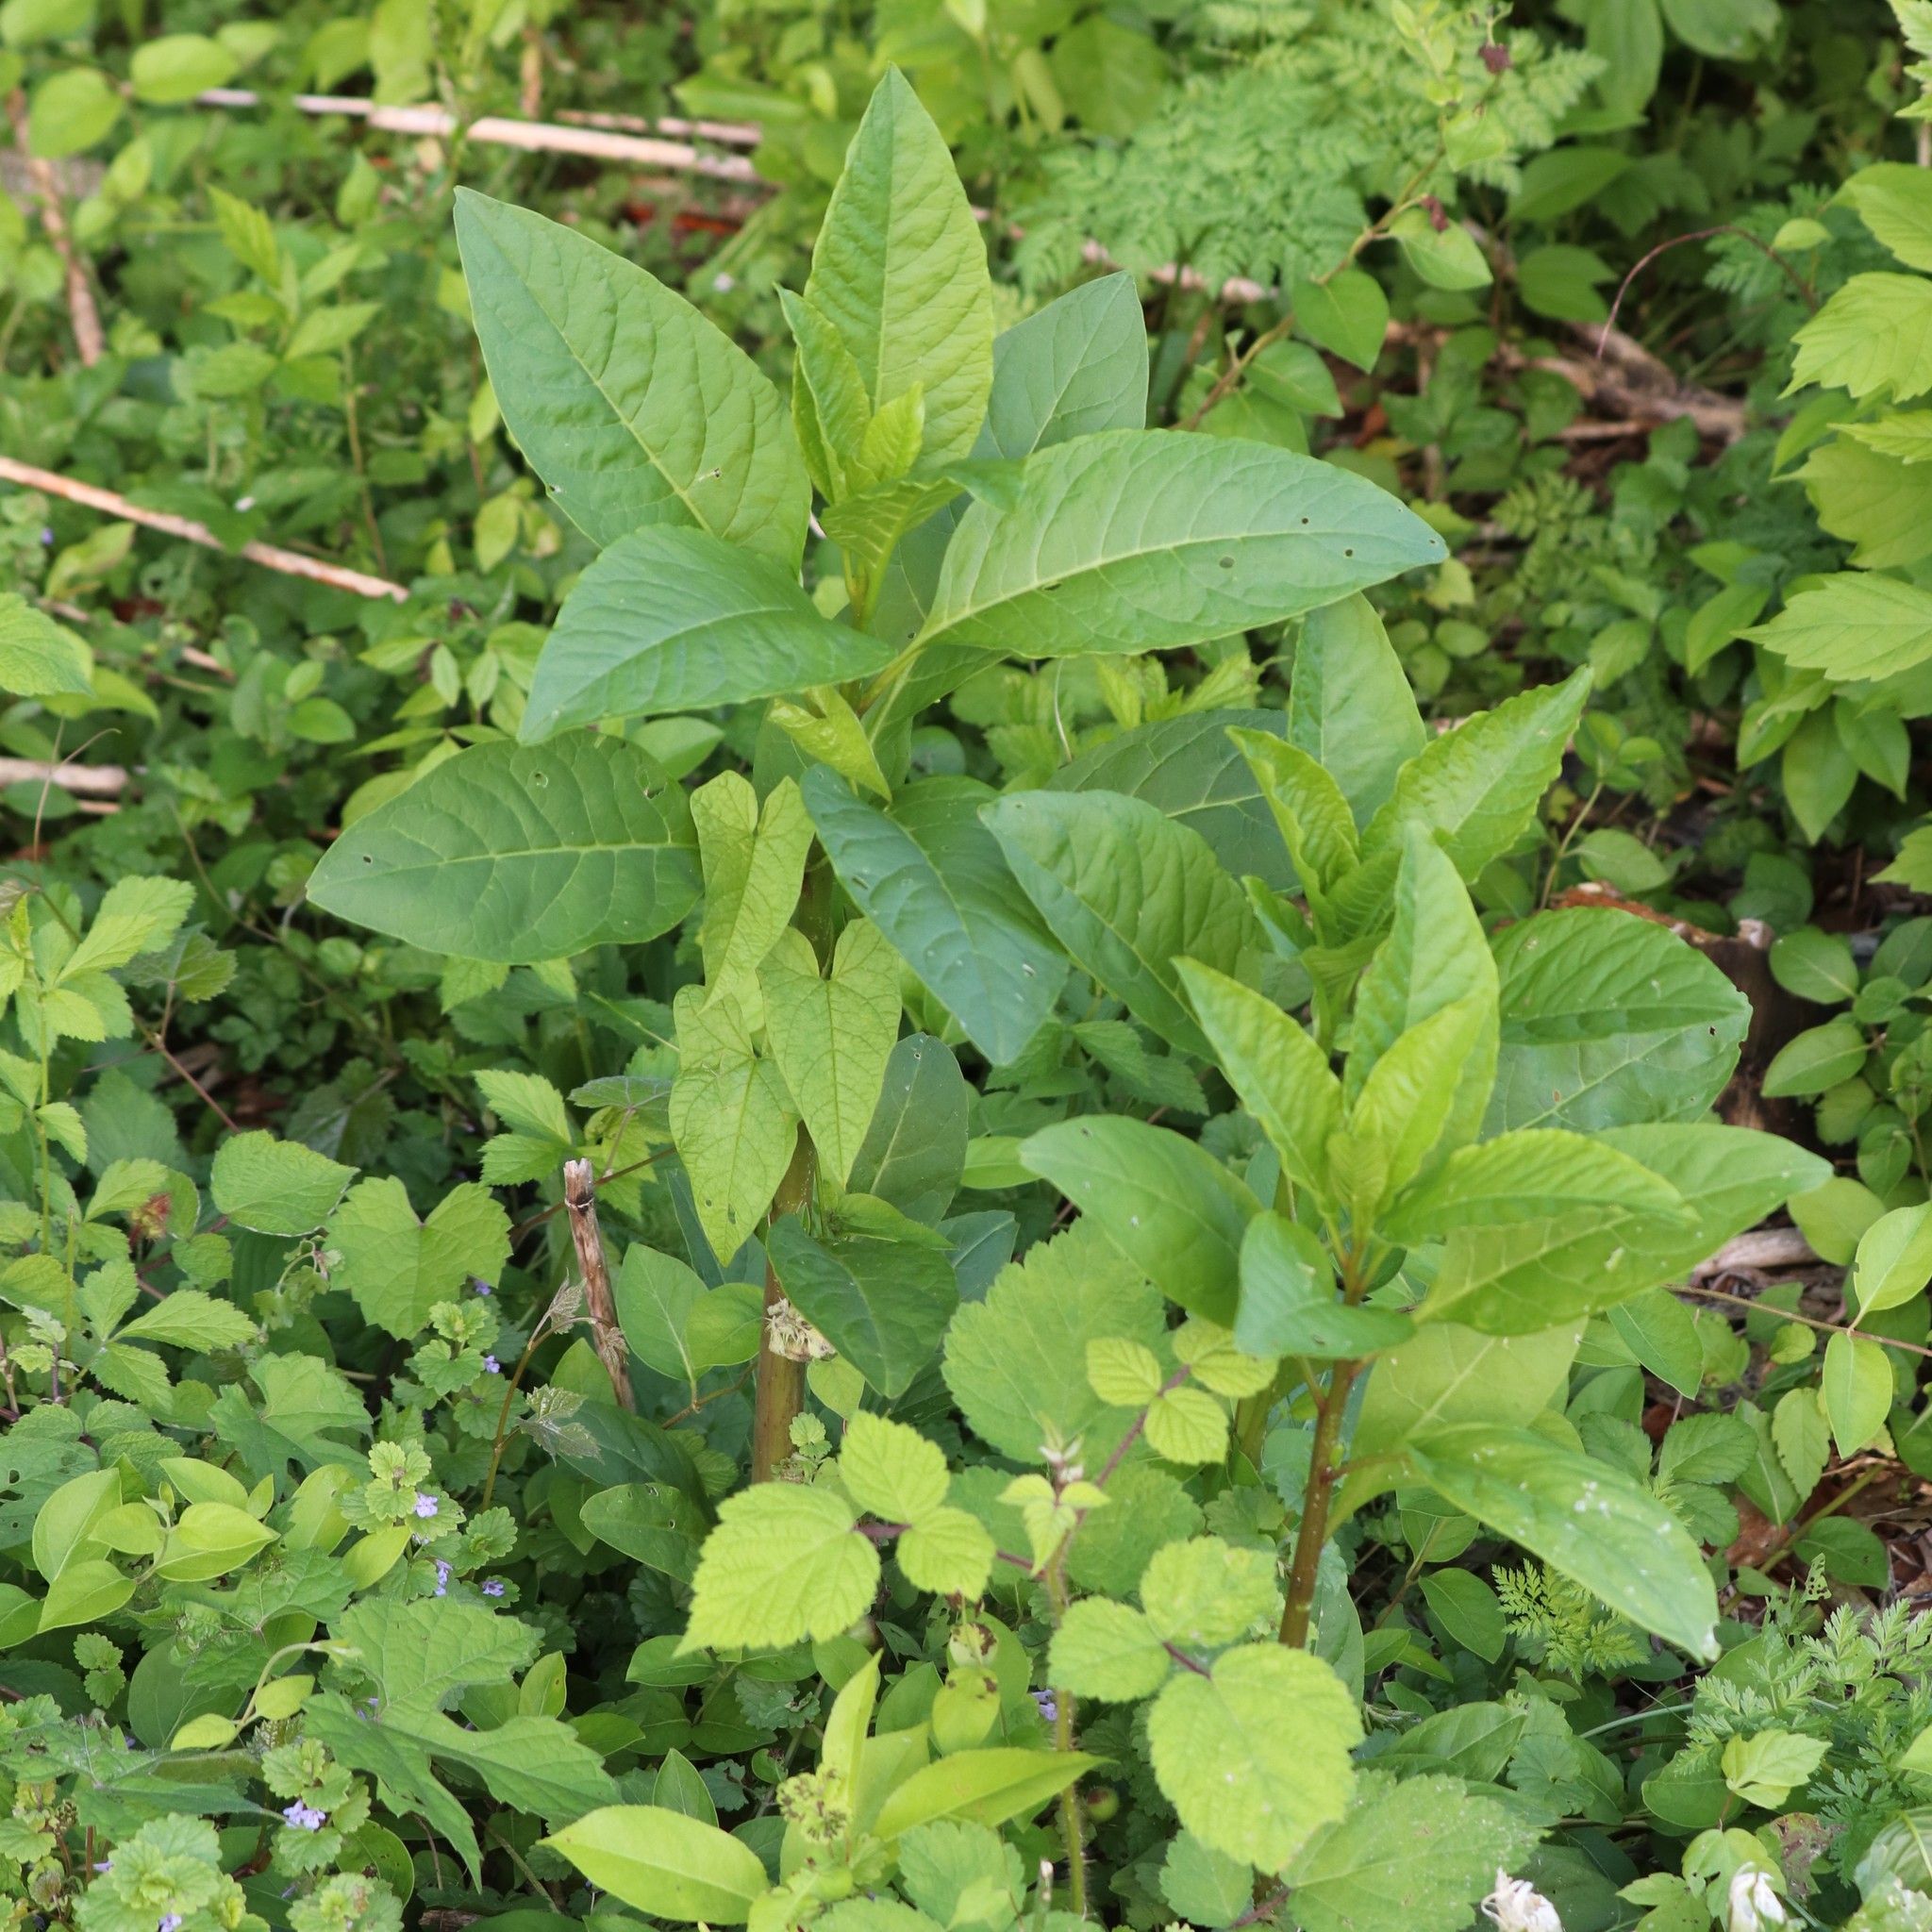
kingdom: Plantae
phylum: Tracheophyta
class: Magnoliopsida
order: Caryophyllales
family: Phytolaccaceae
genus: Phytolacca
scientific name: Phytolacca americana
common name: American pokeweed
